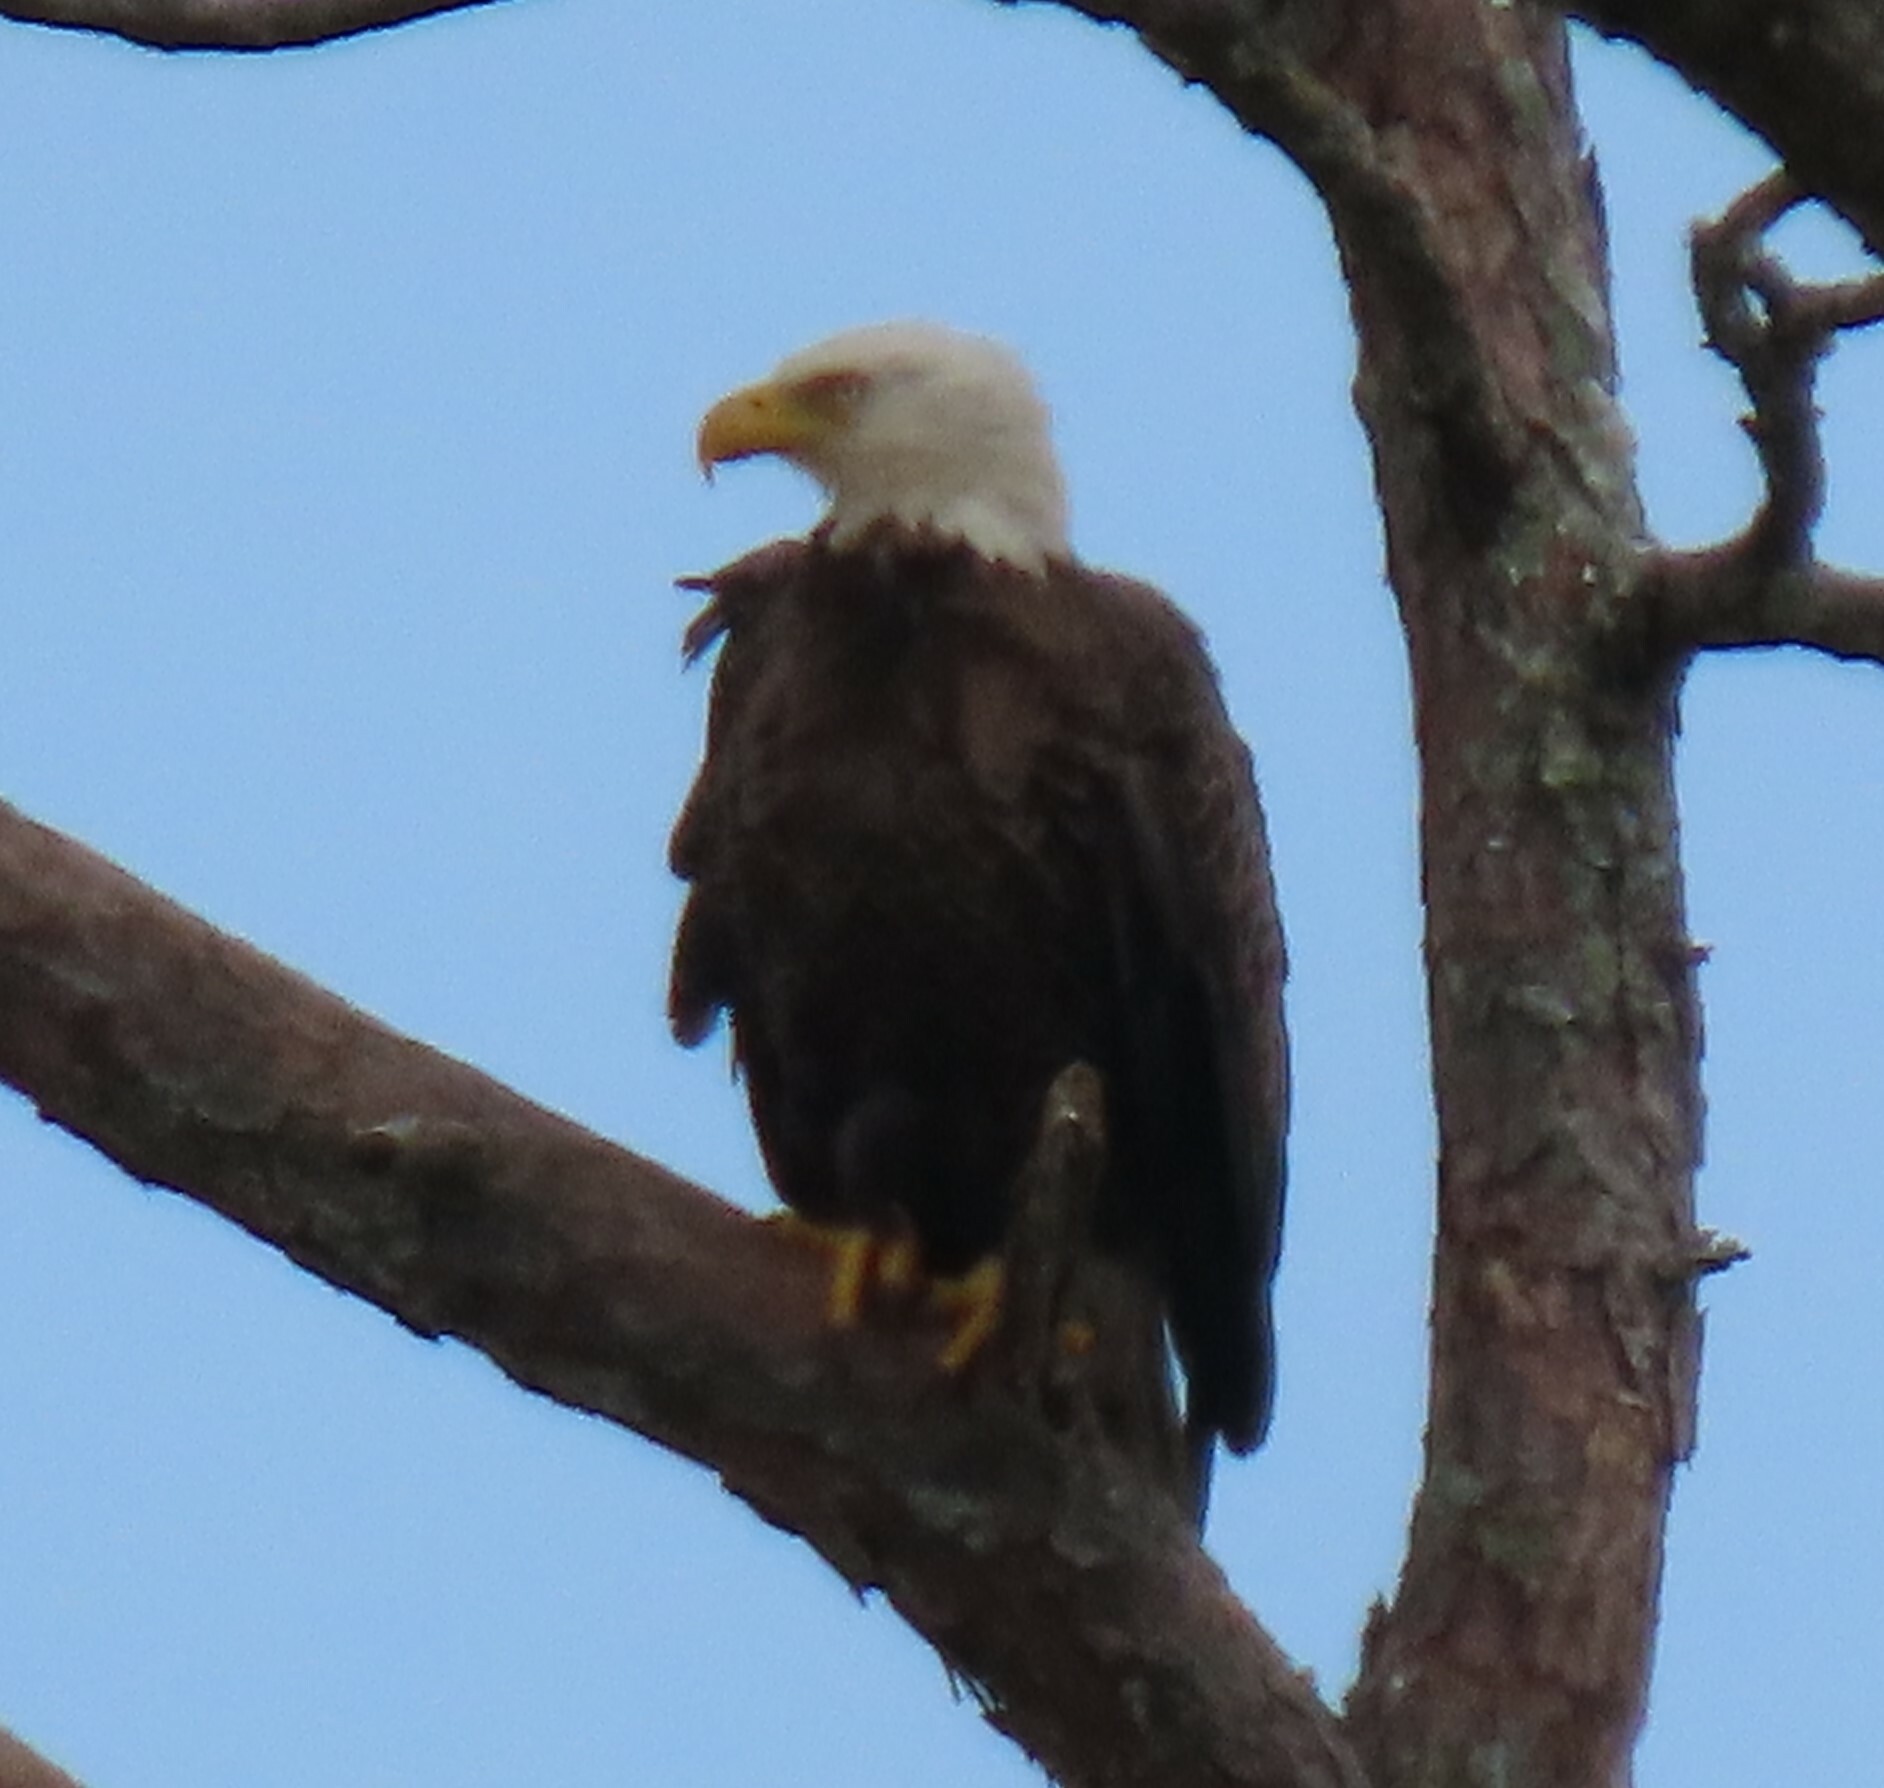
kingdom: Animalia
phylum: Chordata
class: Aves
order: Accipitriformes
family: Accipitridae
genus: Haliaeetus
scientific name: Haliaeetus leucocephalus
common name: Bald eagle
